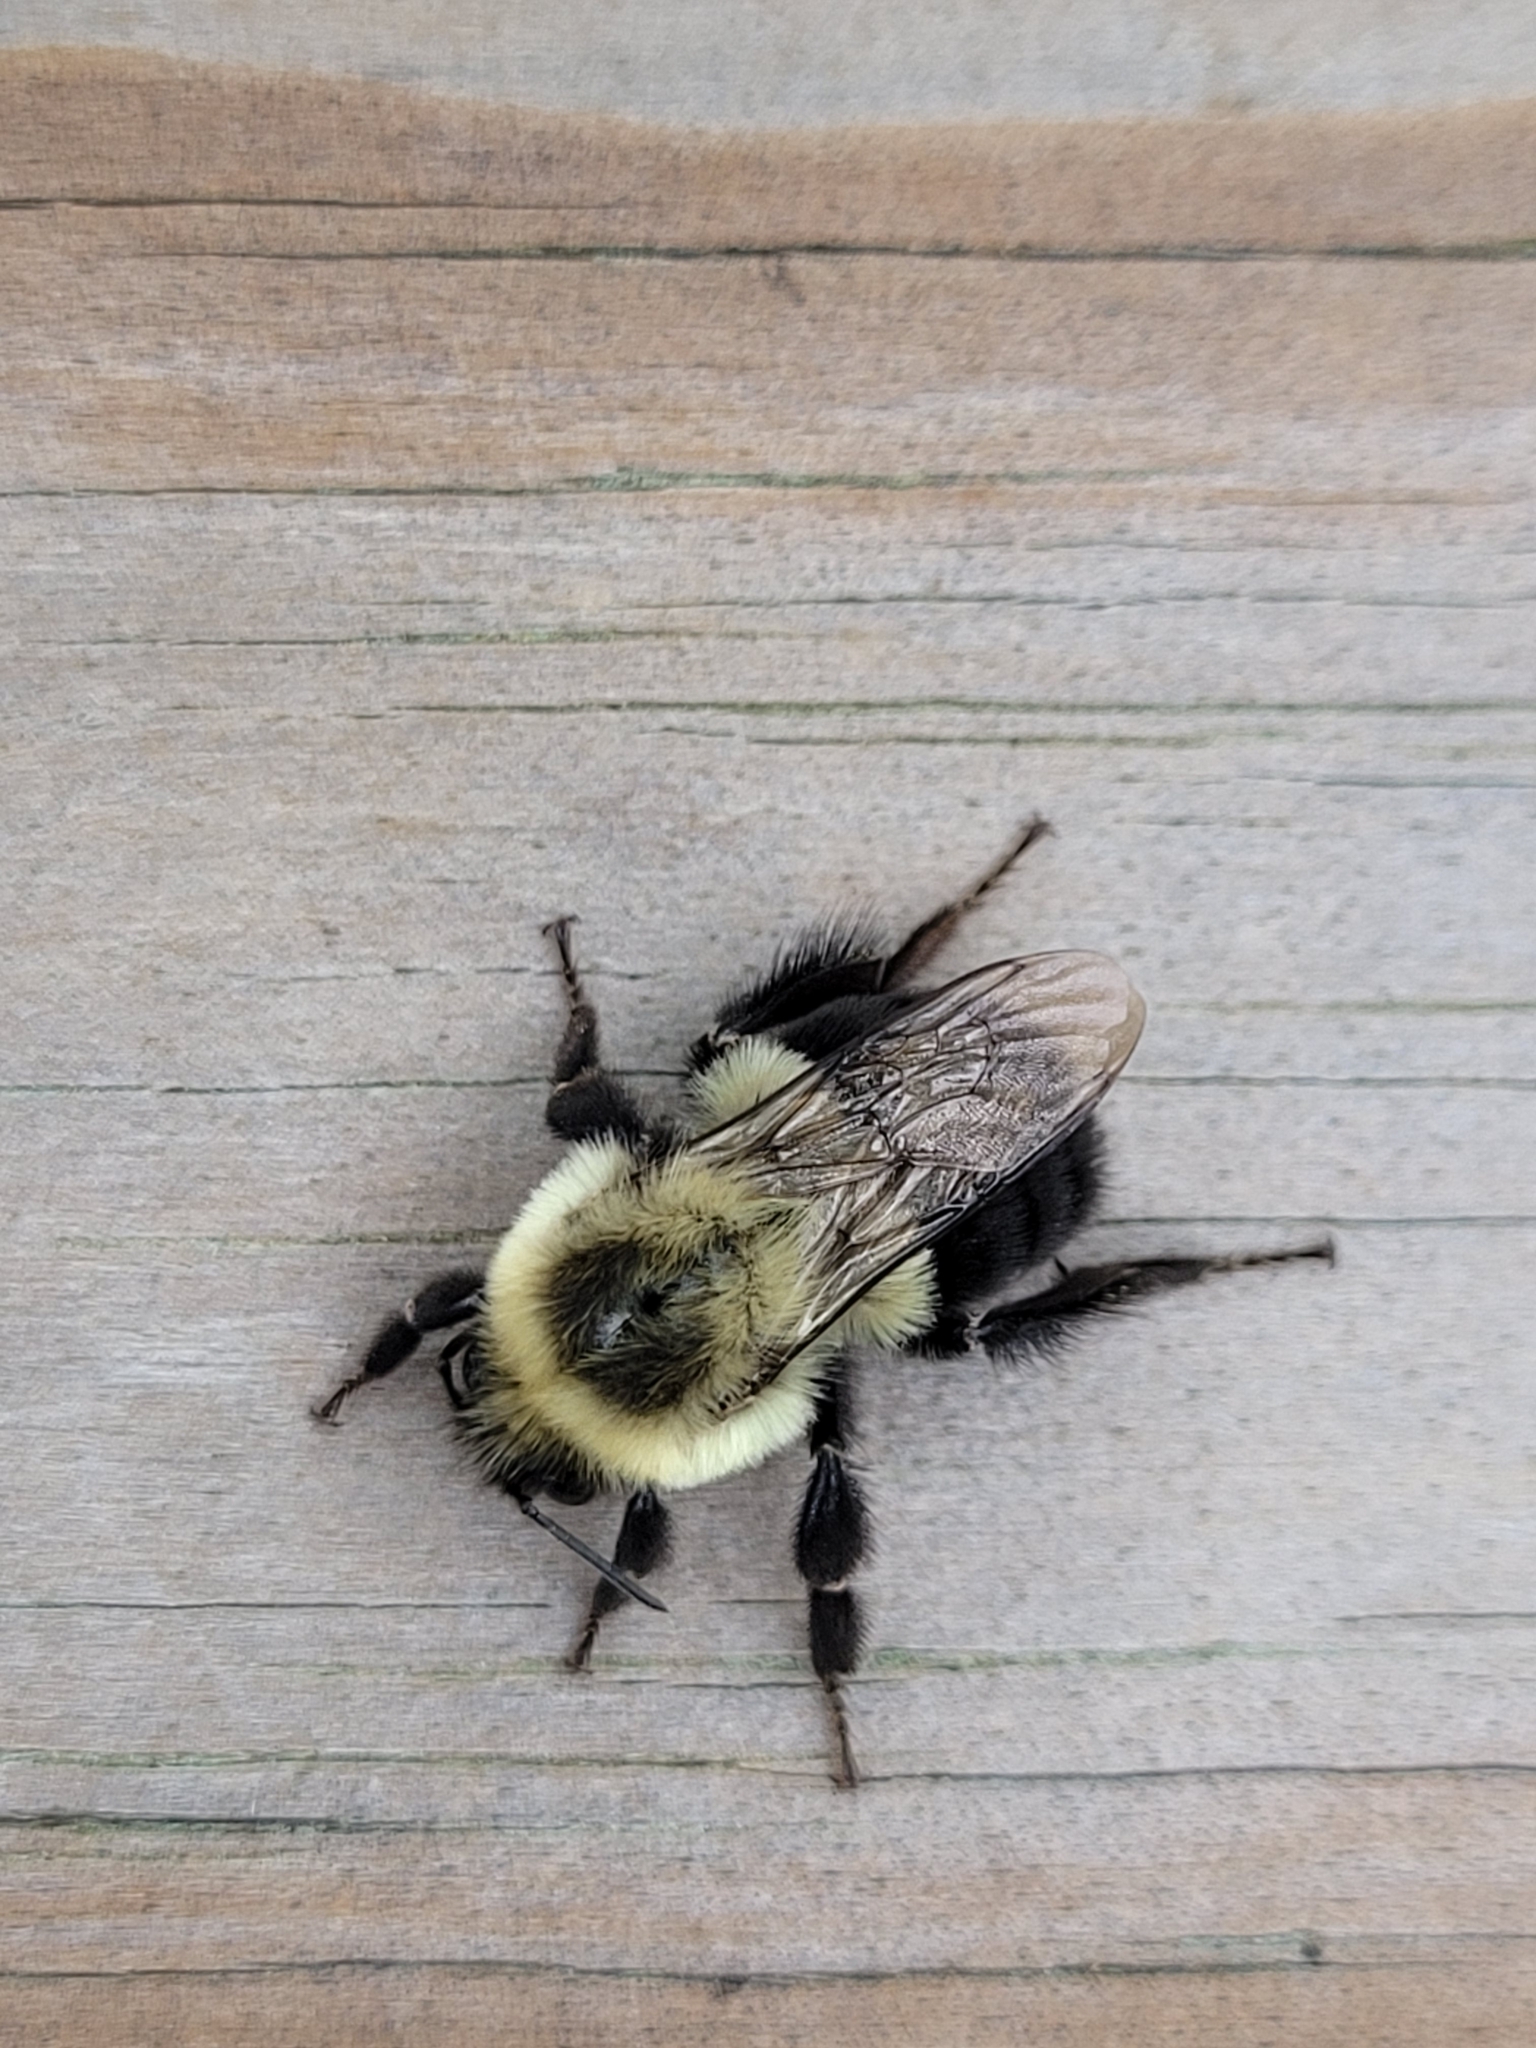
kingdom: Animalia
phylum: Arthropoda
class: Insecta
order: Hymenoptera
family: Apidae
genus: Bombus
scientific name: Bombus impatiens
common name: Common eastern bumble bee
